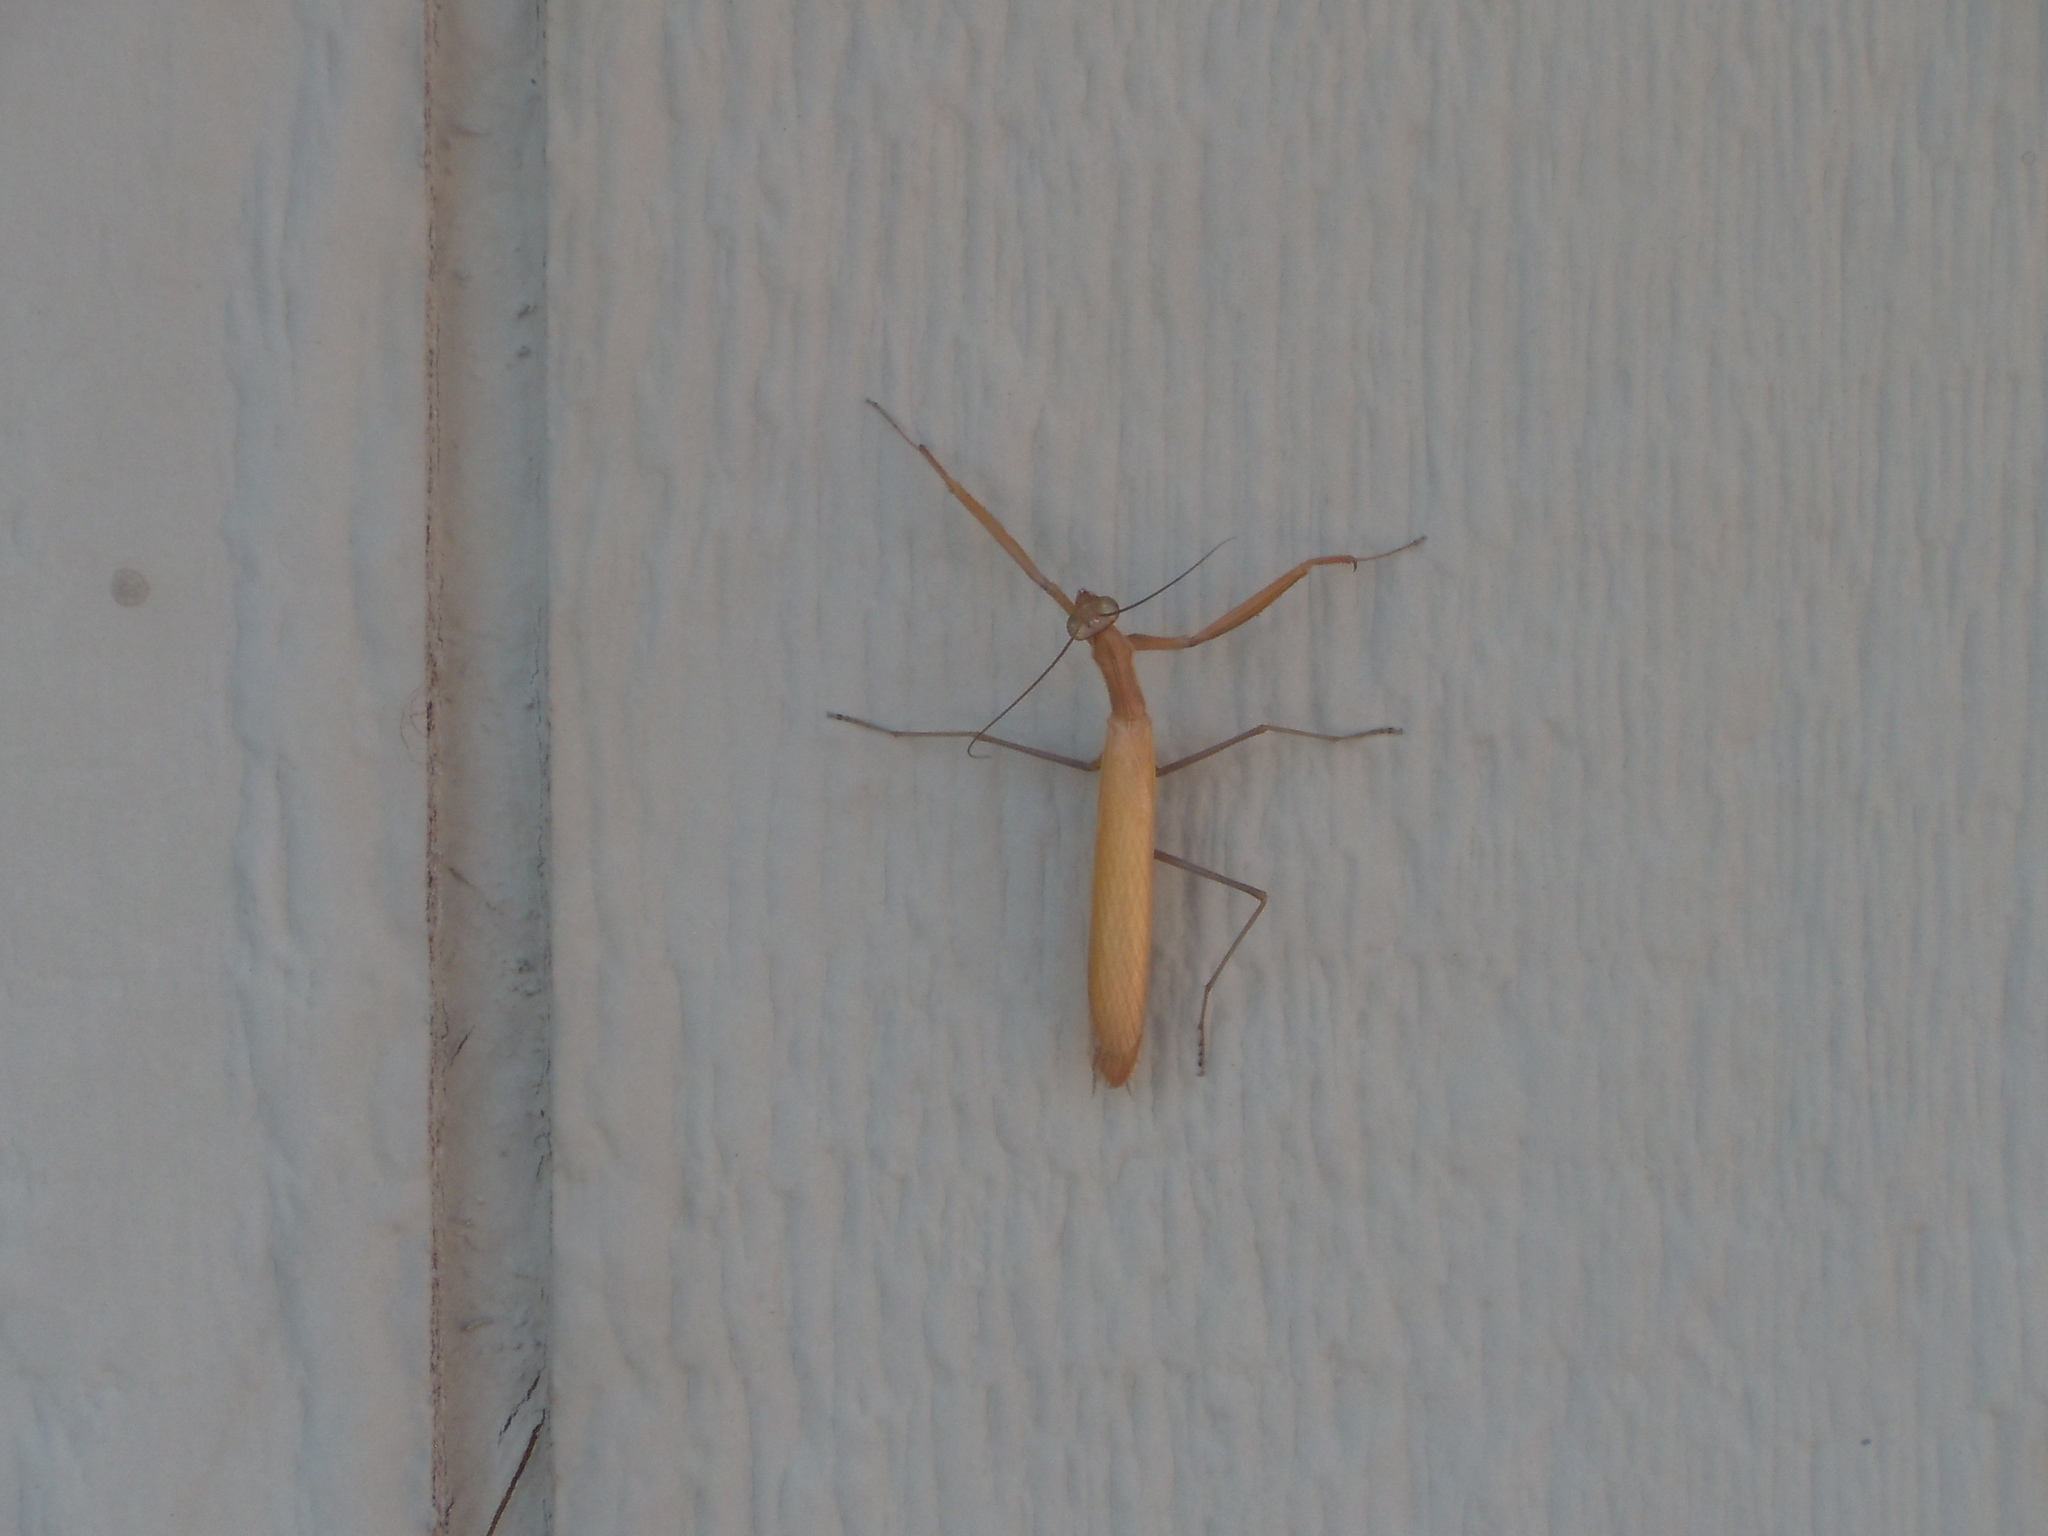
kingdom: Animalia
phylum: Chordata
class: Mammalia
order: Lagomorpha
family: Leporidae
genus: Sylvilagus
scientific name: Sylvilagus audubonii
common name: Desert cottontail
